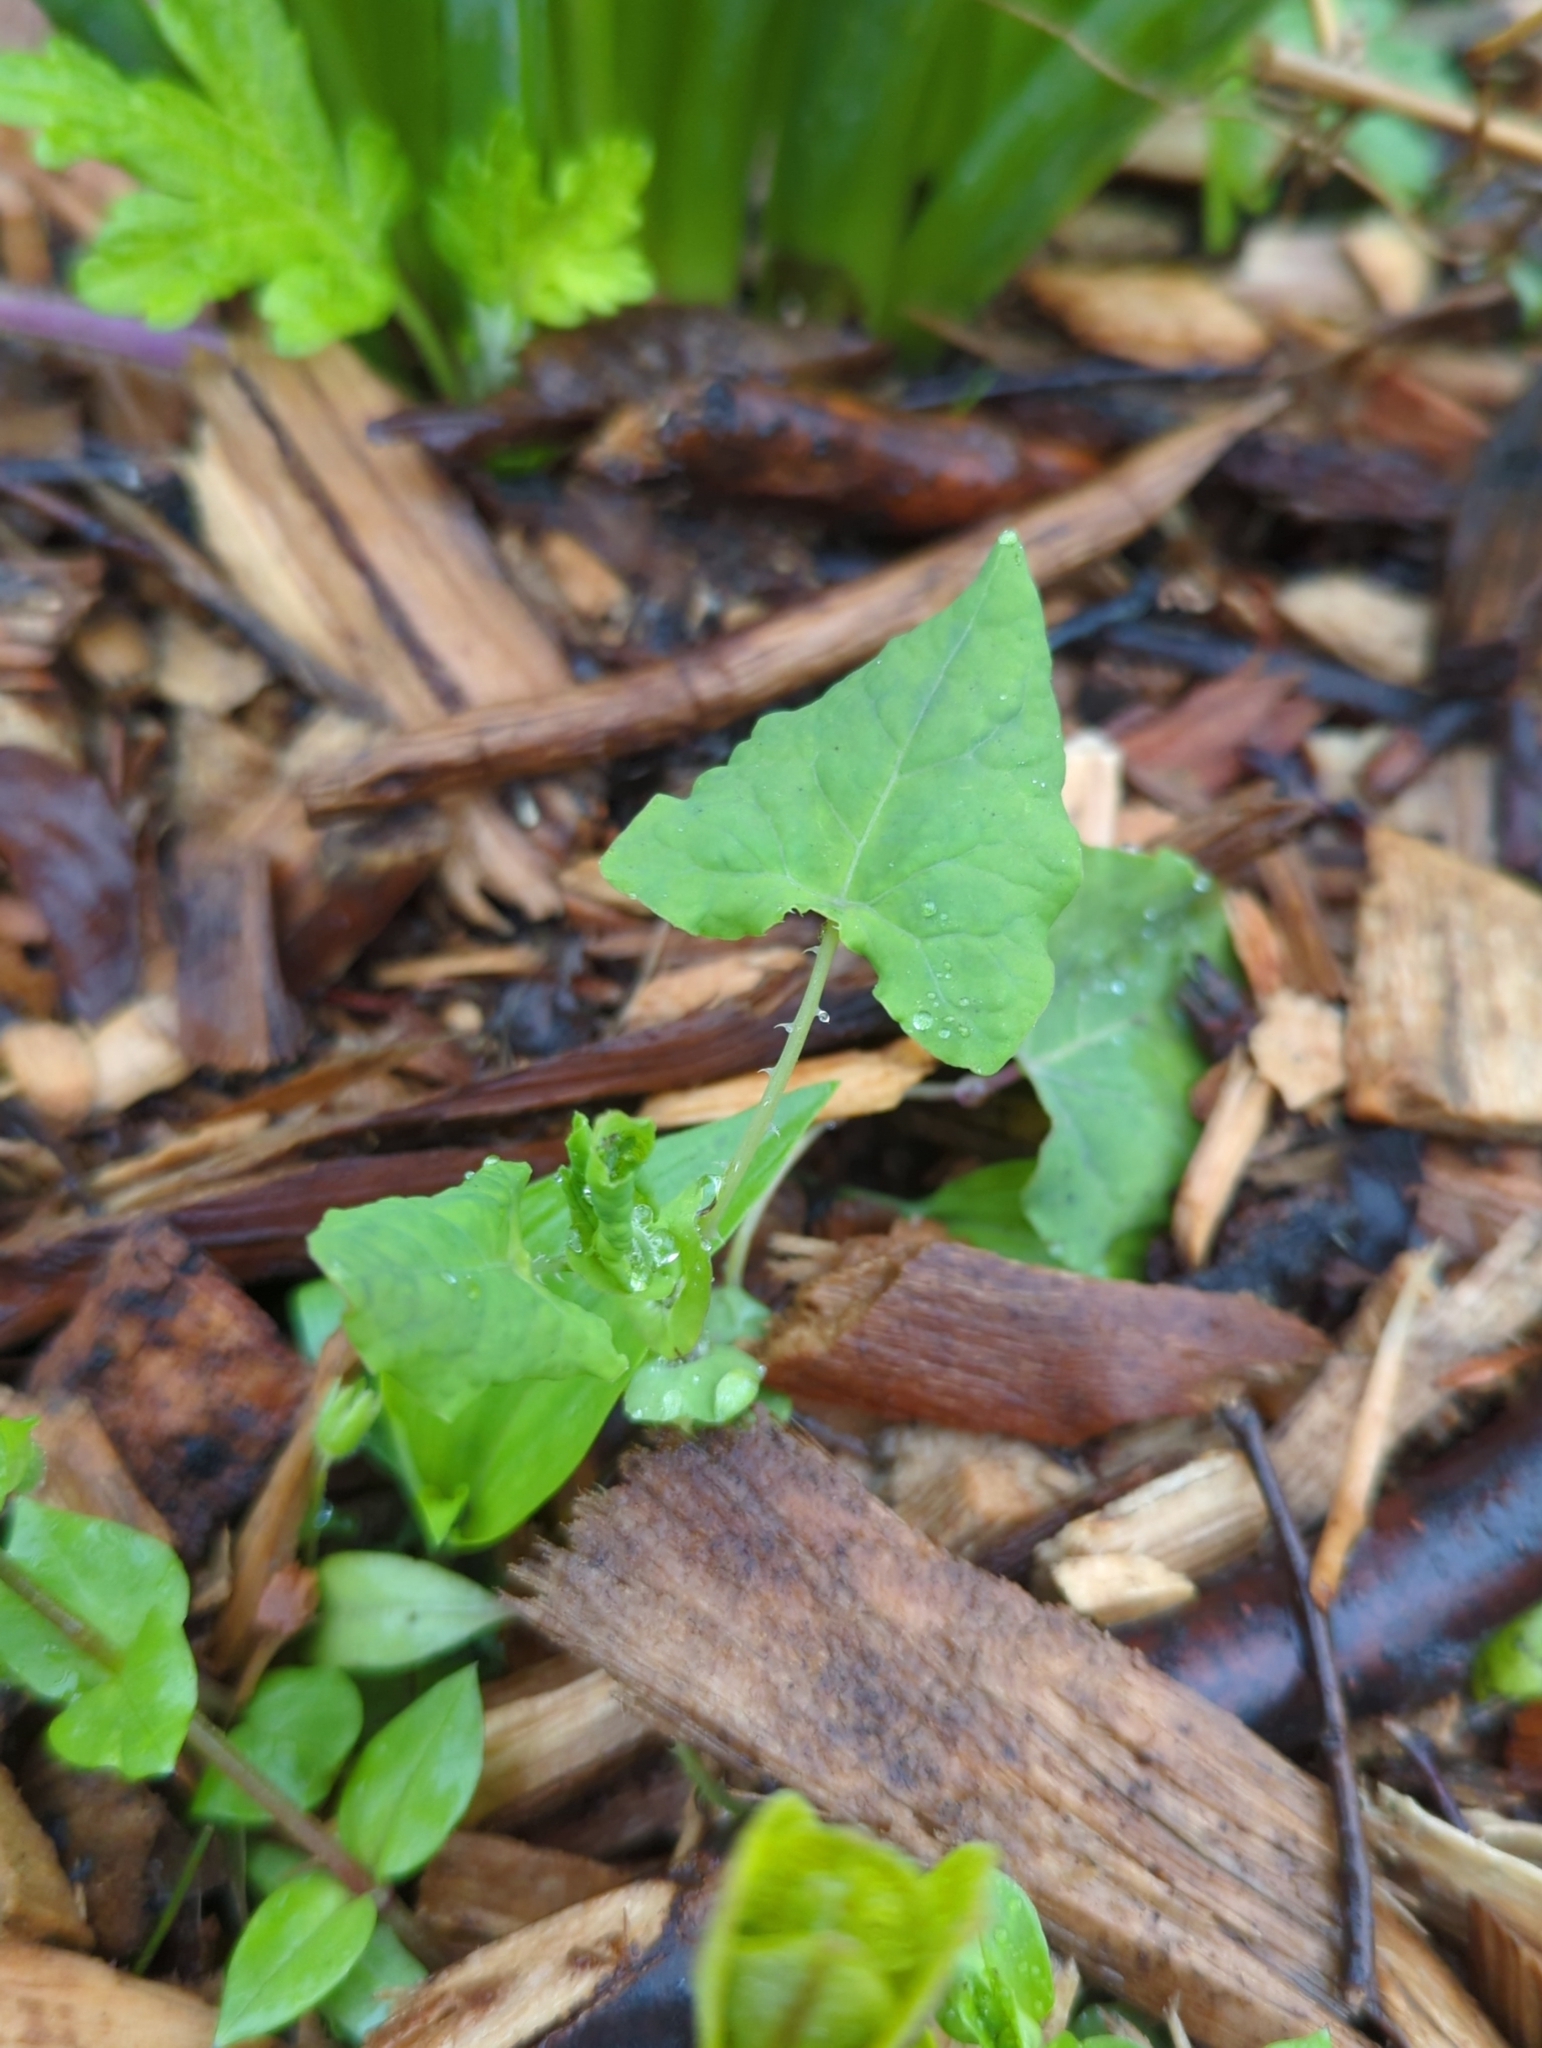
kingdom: Plantae
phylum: Tracheophyta
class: Magnoliopsida
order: Caryophyllales
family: Polygonaceae
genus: Persicaria
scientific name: Persicaria perfoliata
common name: Asiatic tearthumb
